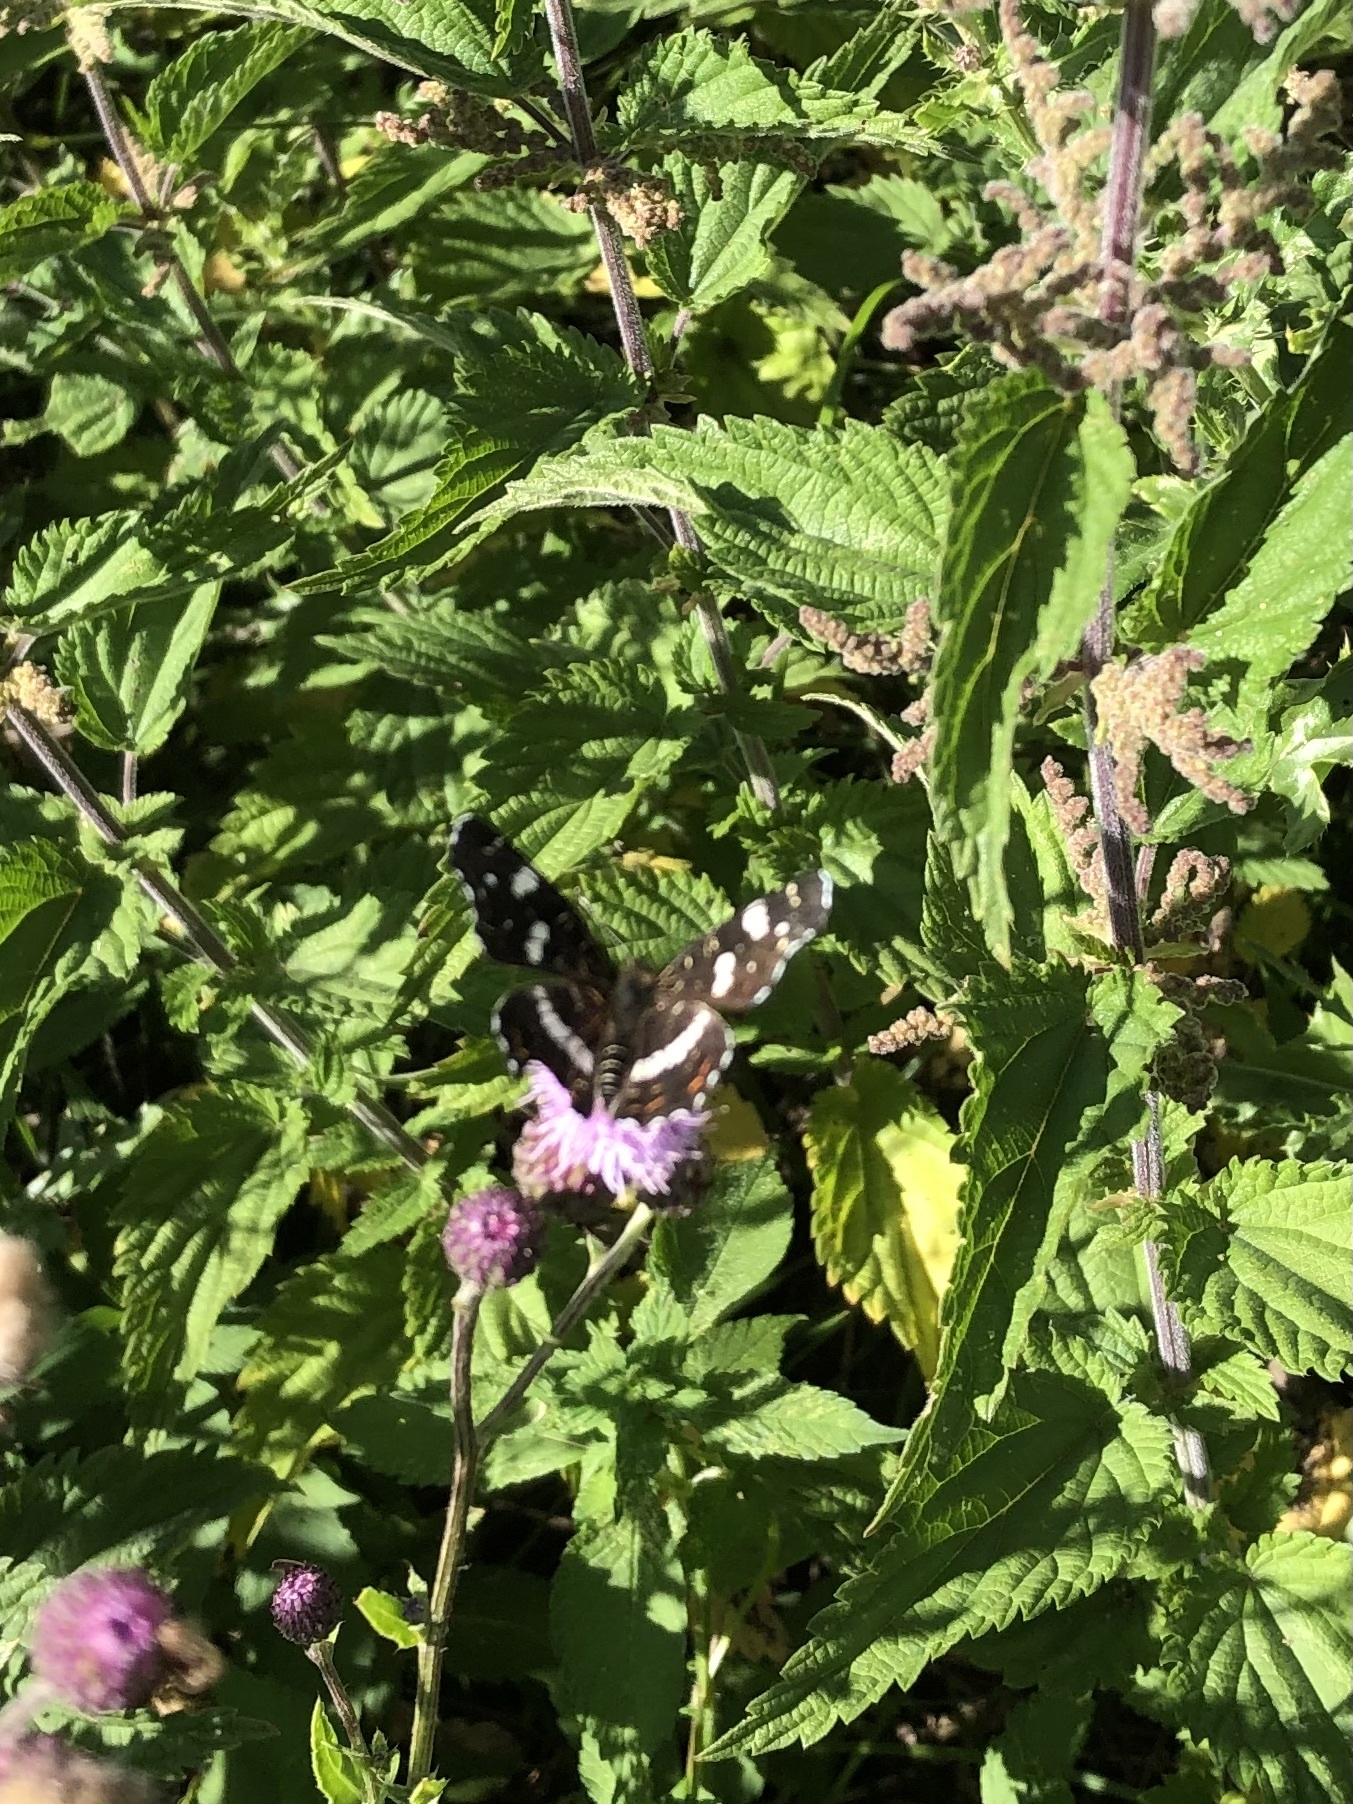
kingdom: Animalia
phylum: Arthropoda
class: Insecta
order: Lepidoptera
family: Nymphalidae
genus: Araschnia
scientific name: Araschnia levana
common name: Map butterfly
